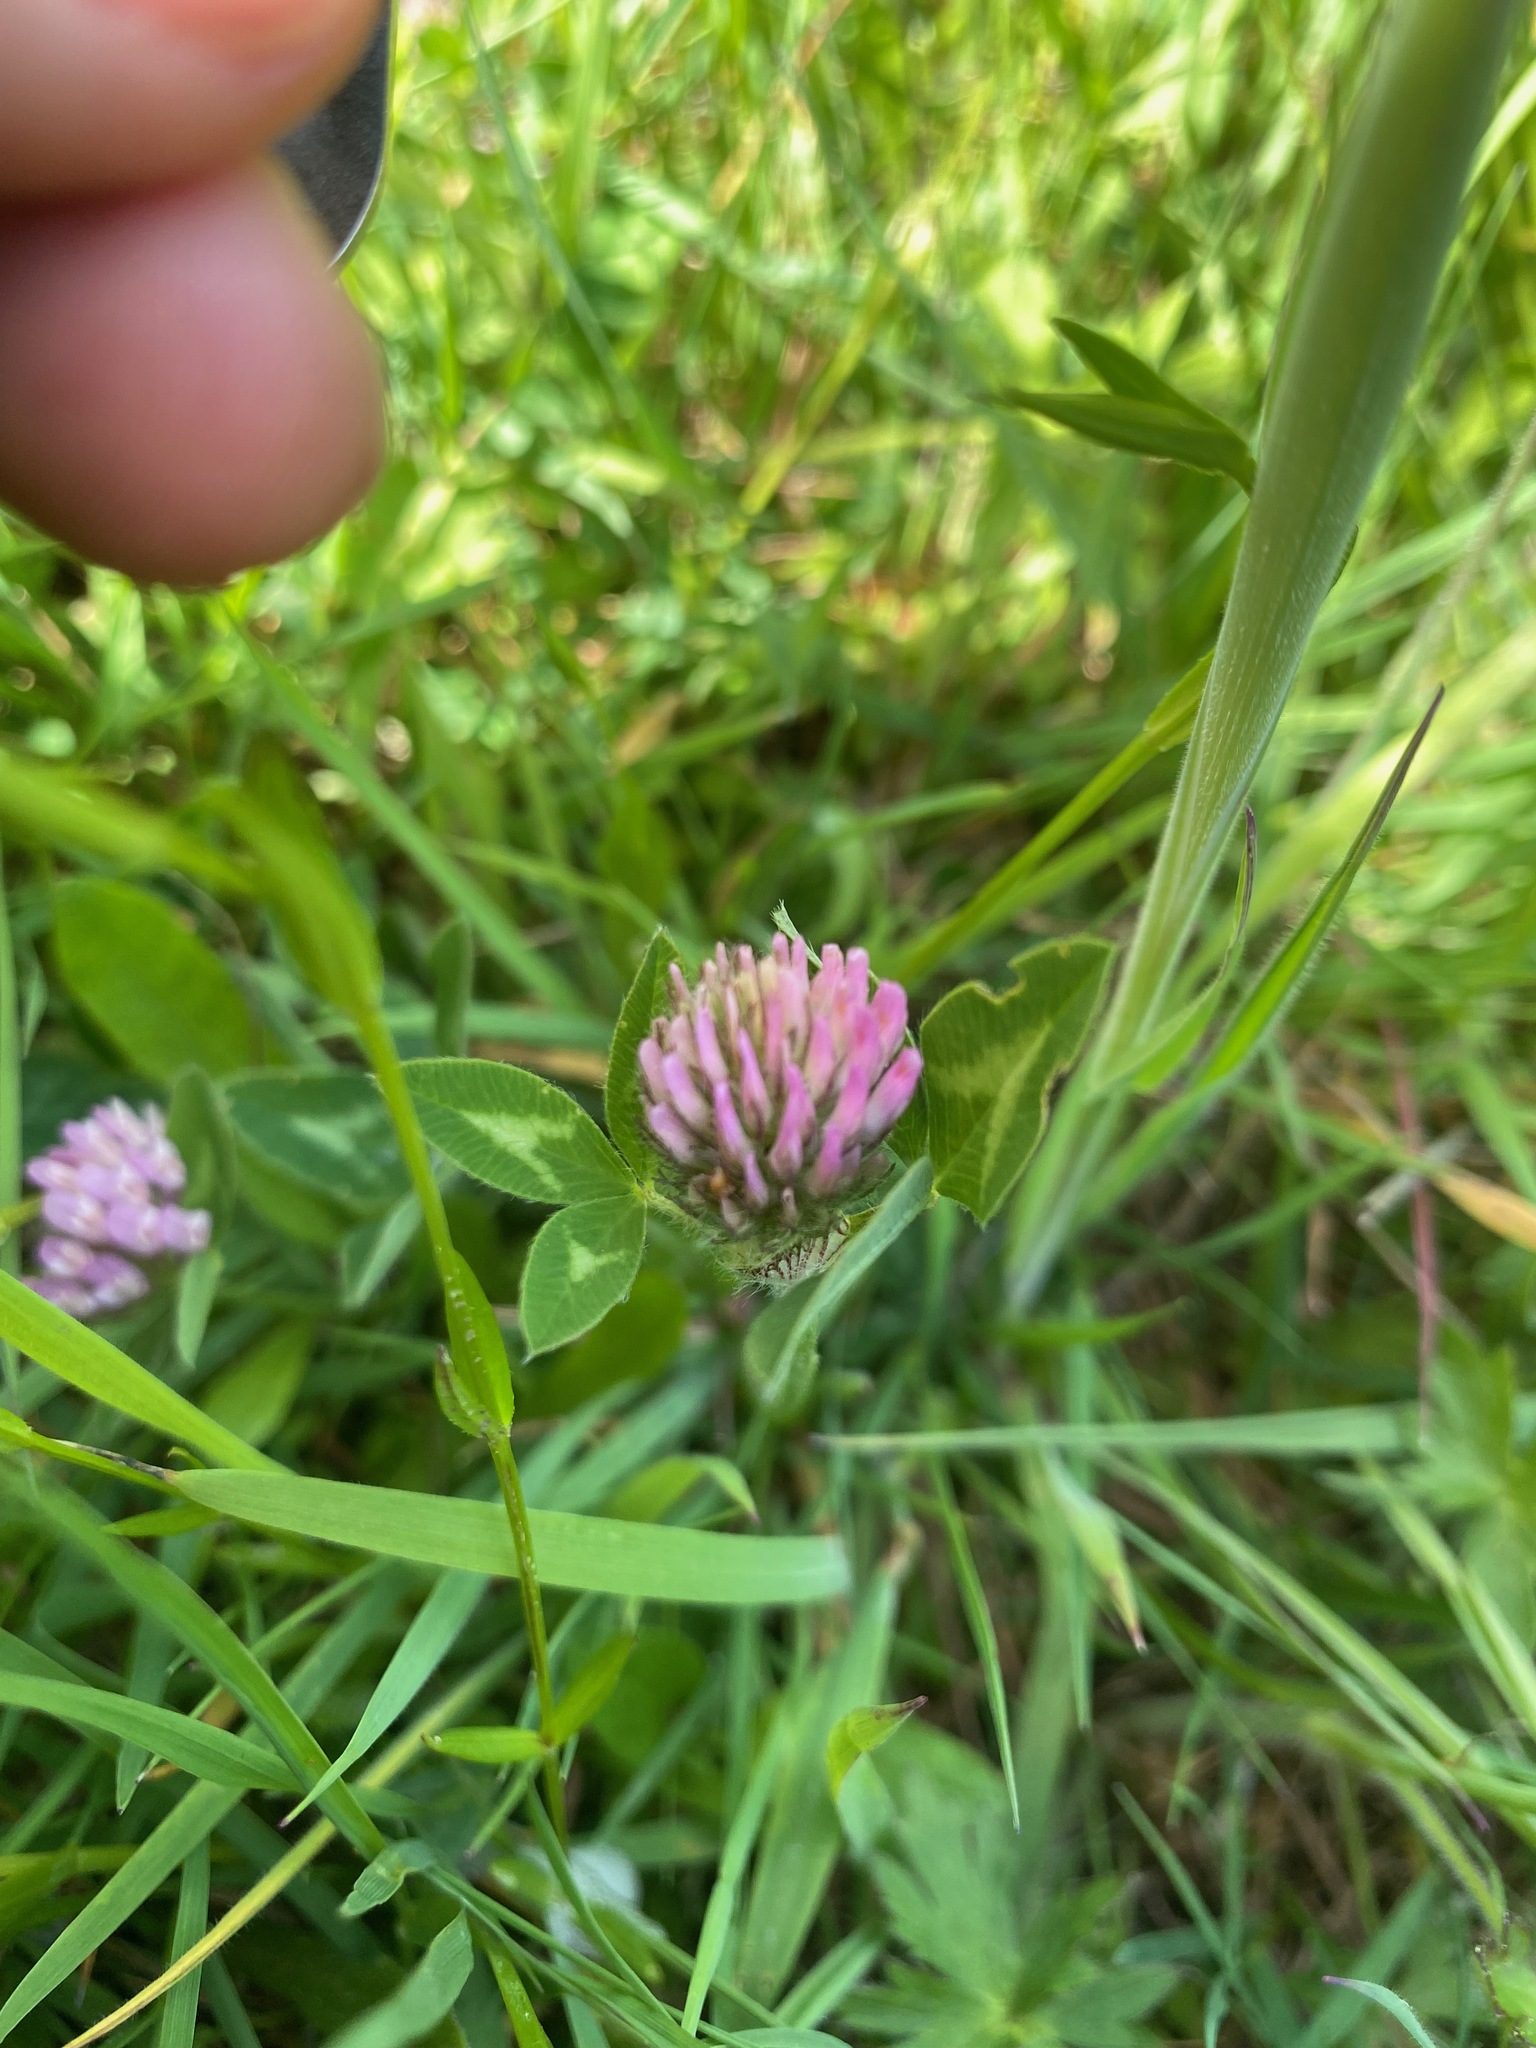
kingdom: Plantae
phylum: Tracheophyta
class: Magnoliopsida
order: Fabales
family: Fabaceae
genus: Trifolium
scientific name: Trifolium pratense
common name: Red clover
